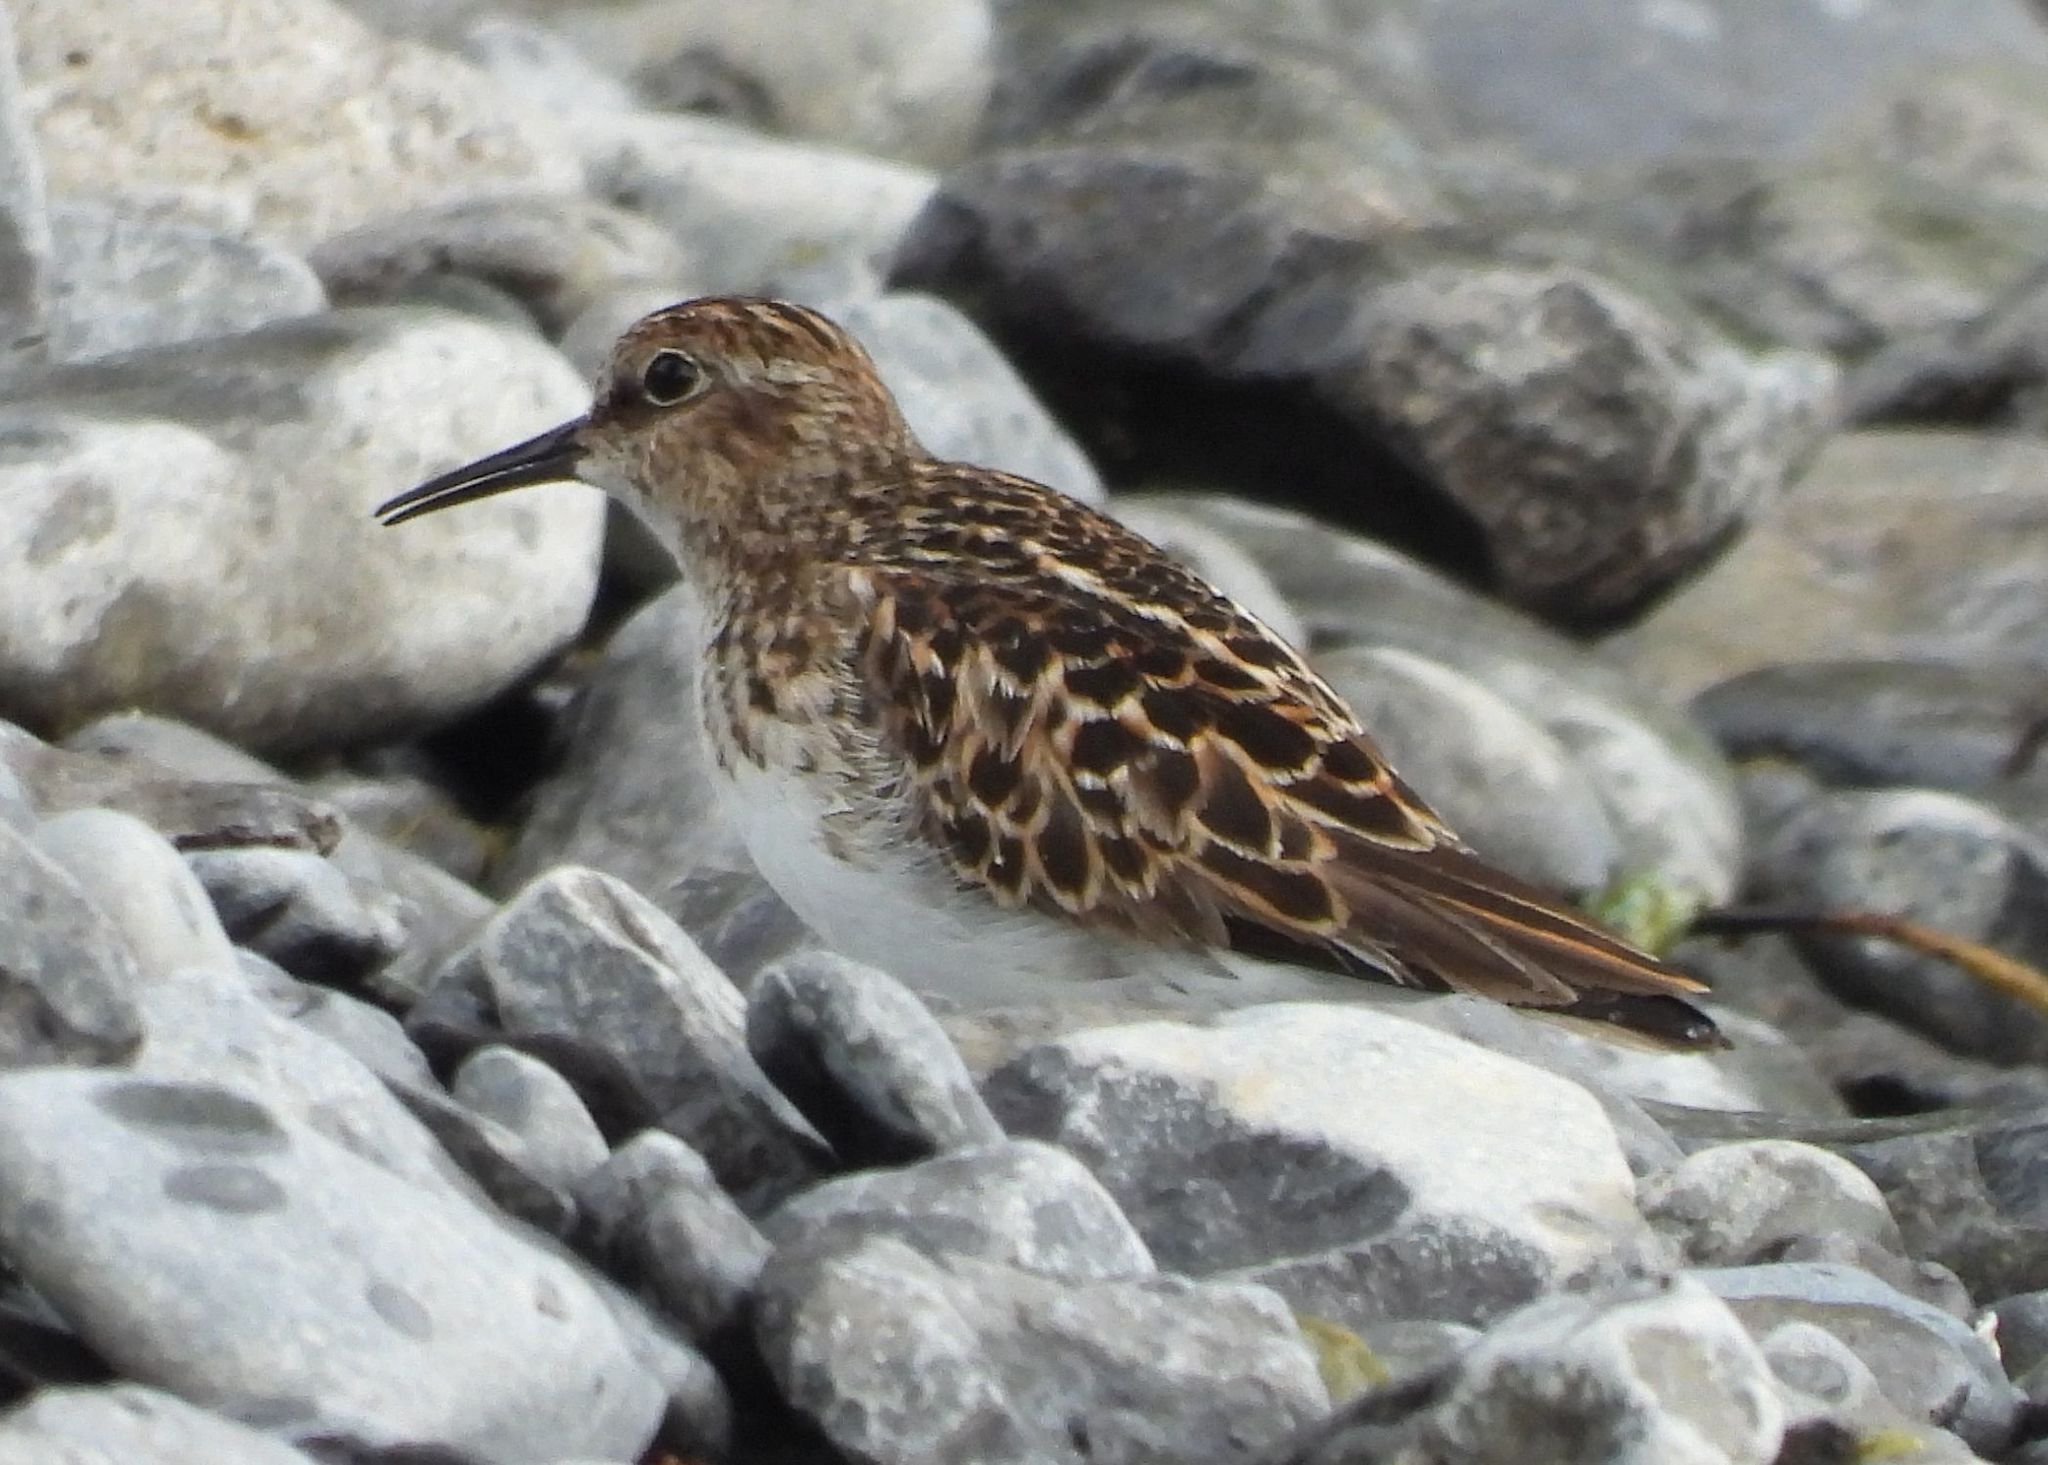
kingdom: Animalia
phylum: Chordata
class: Aves
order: Charadriiformes
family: Scolopacidae
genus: Calidris
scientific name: Calidris minutilla
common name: Least sandpiper
